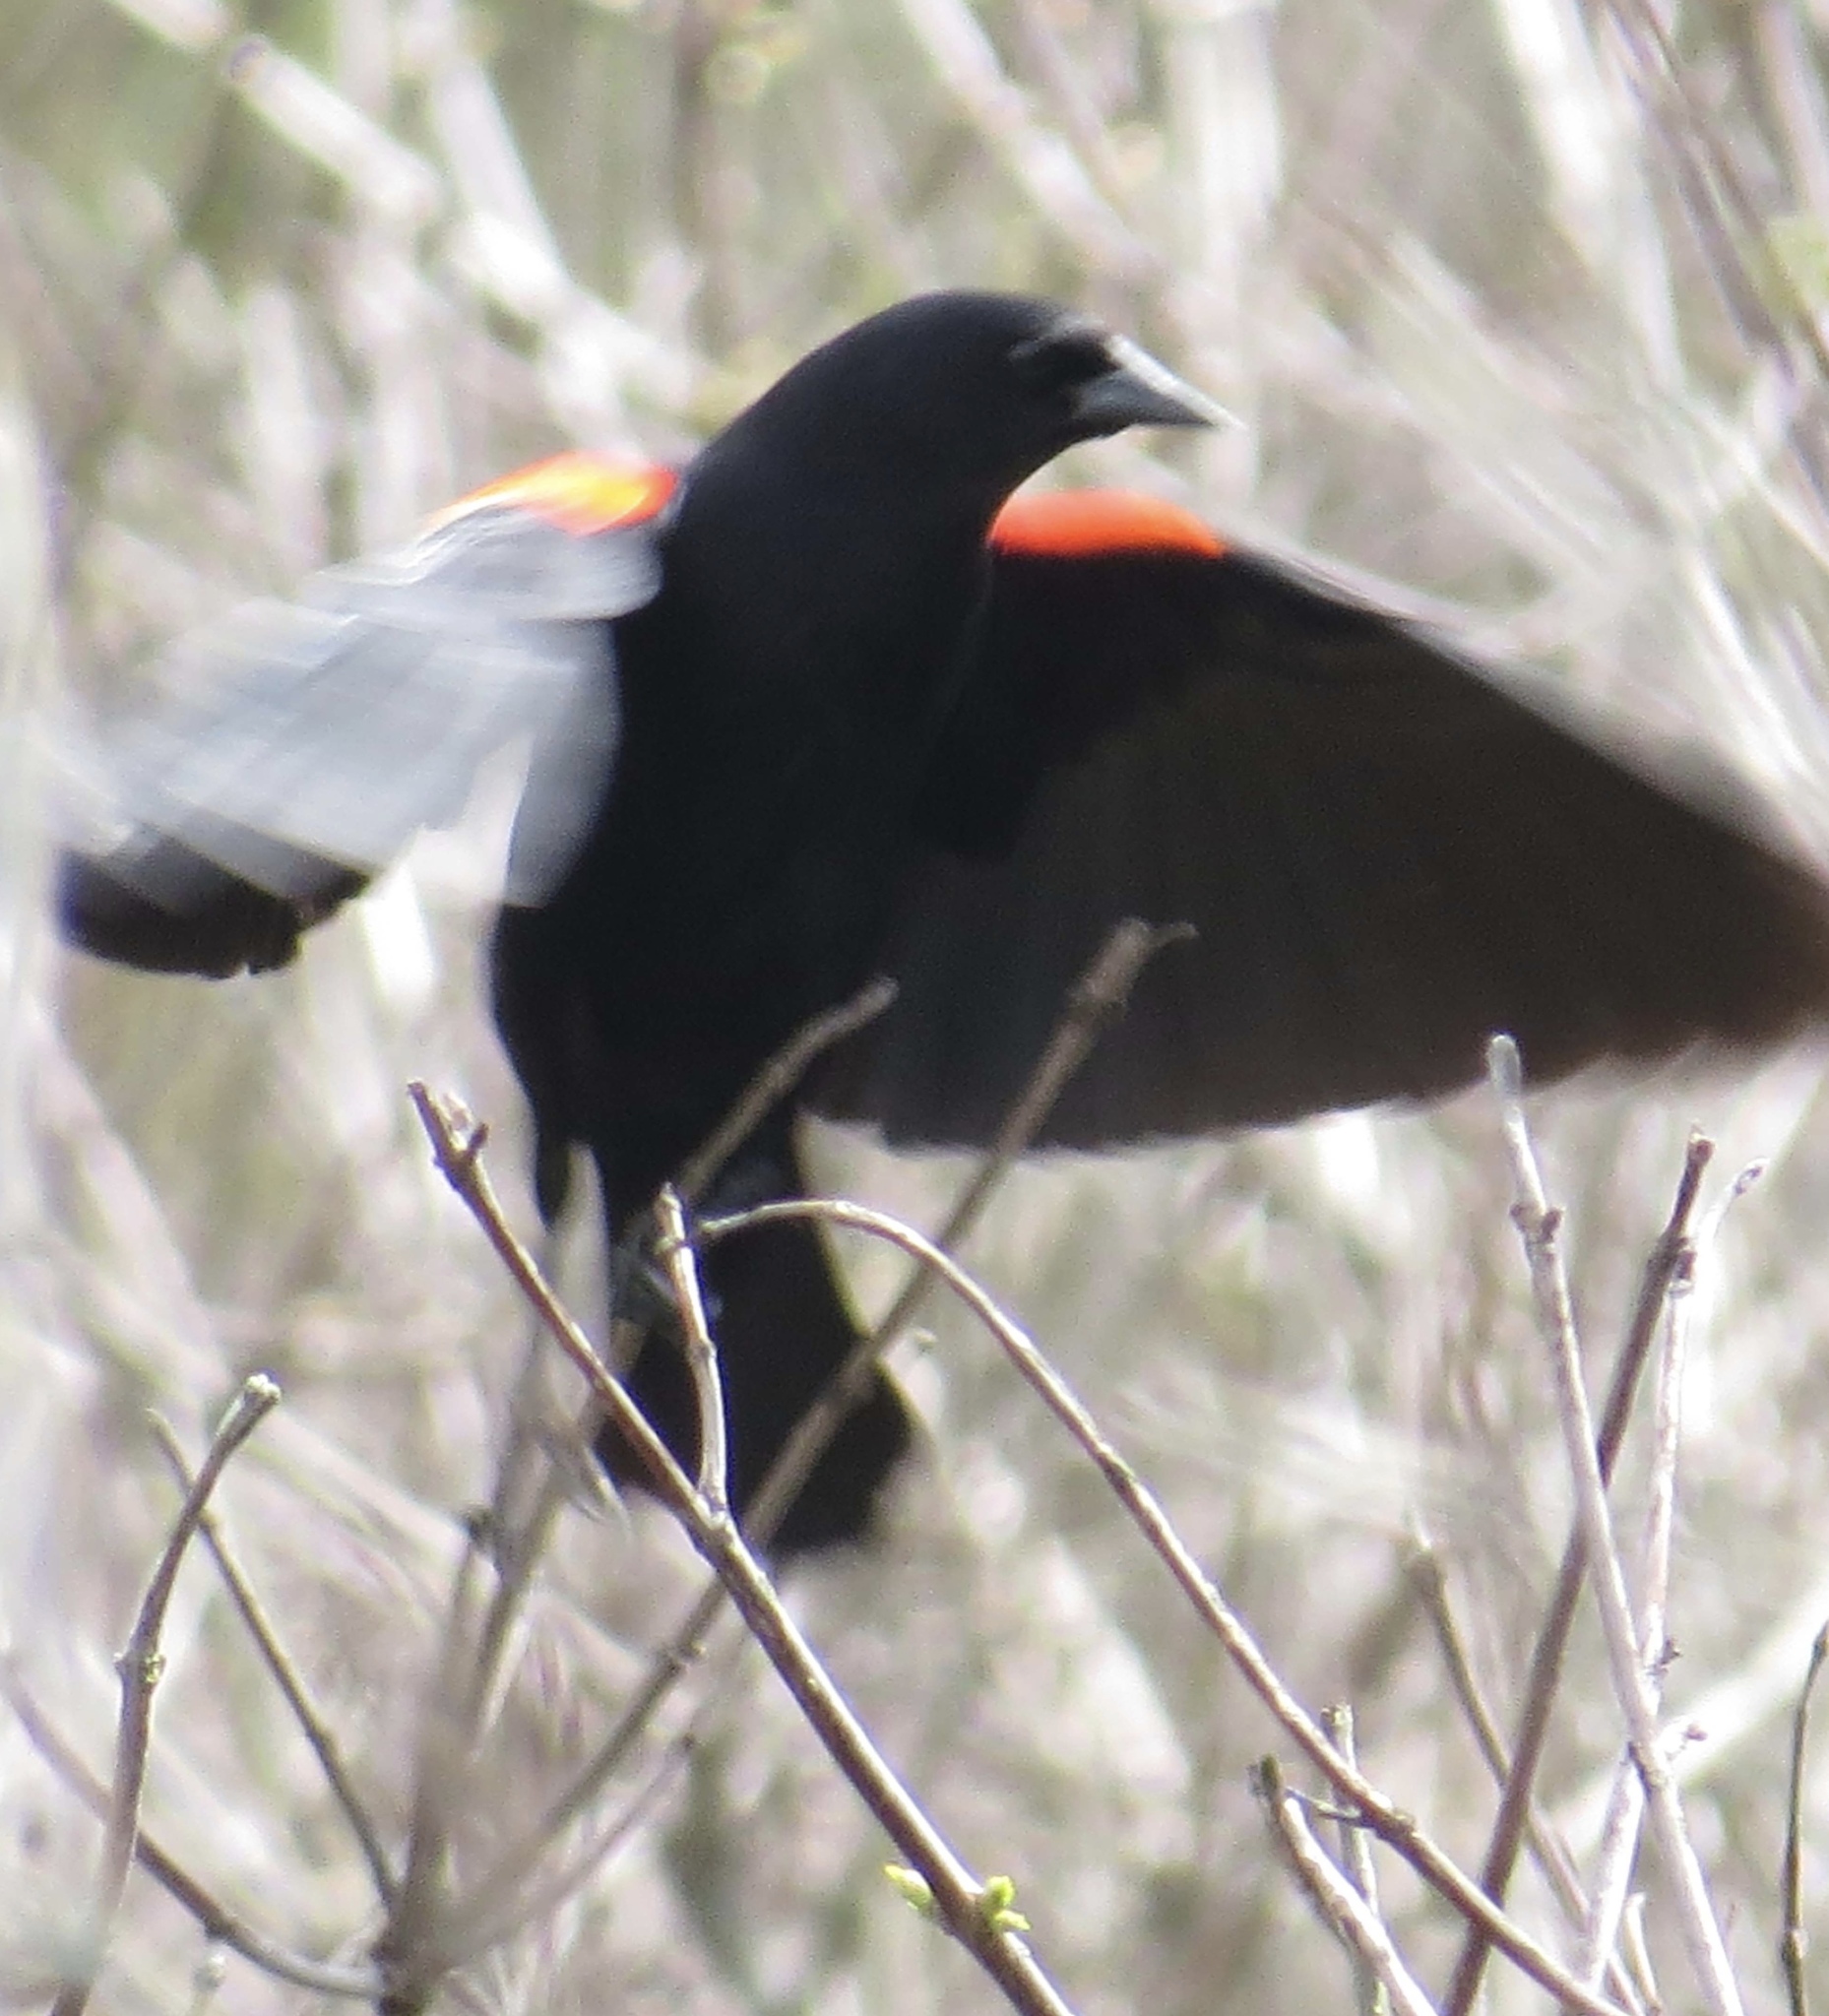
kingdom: Animalia
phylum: Chordata
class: Aves
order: Passeriformes
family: Icteridae
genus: Agelaius
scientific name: Agelaius phoeniceus
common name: Red-winged blackbird
